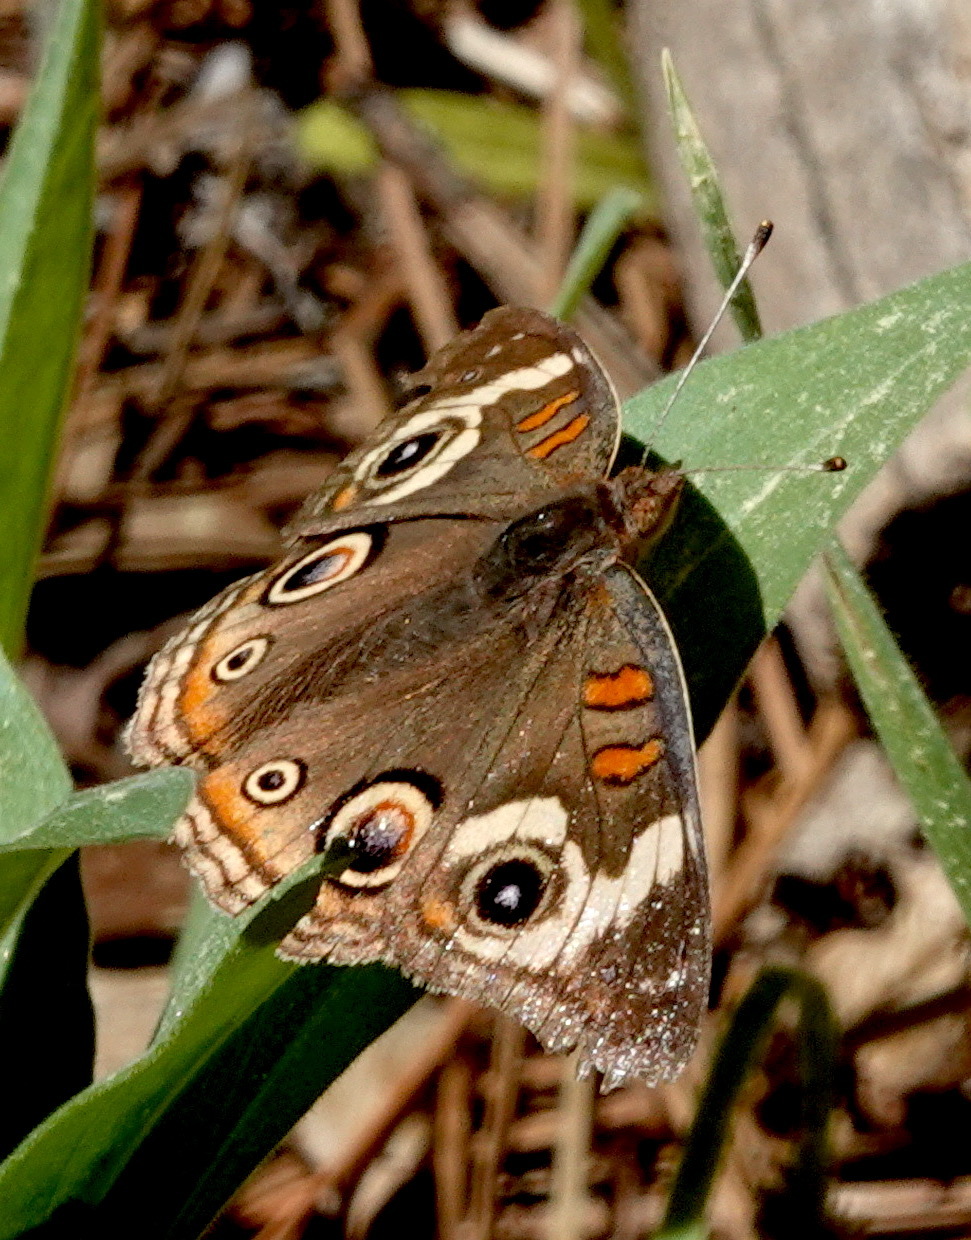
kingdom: Animalia
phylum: Arthropoda
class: Insecta
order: Lepidoptera
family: Nymphalidae
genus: Junonia
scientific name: Junonia grisea
